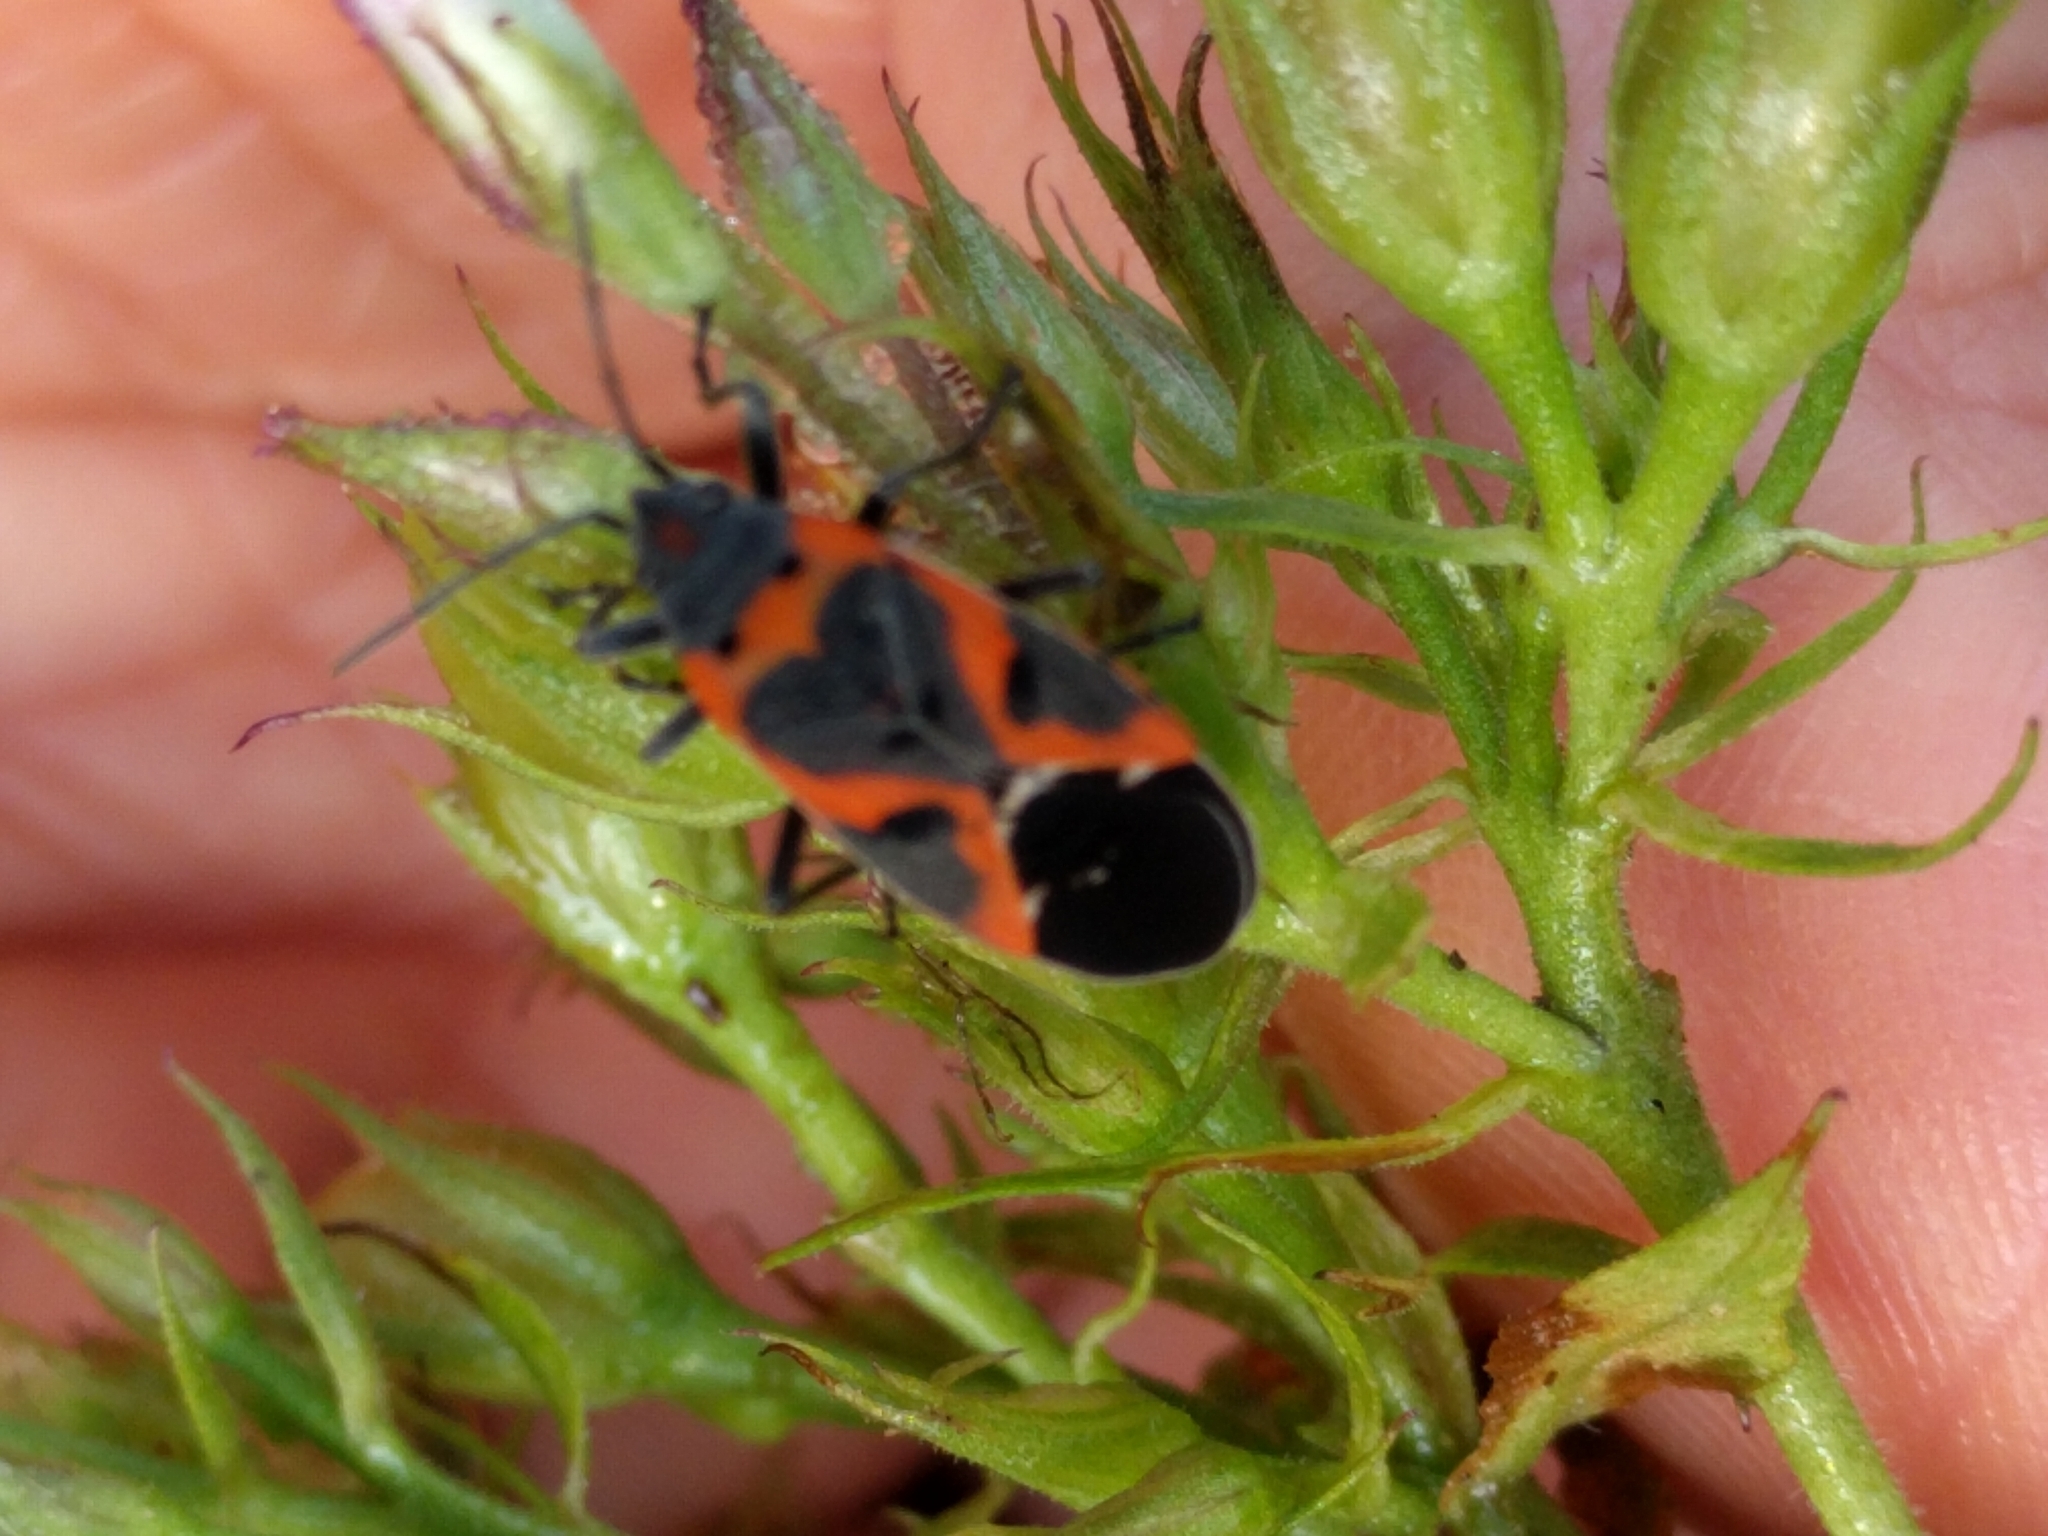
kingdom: Animalia
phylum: Arthropoda
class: Insecta
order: Hemiptera
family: Lygaeidae
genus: Lygaeus
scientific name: Lygaeus kalmii
